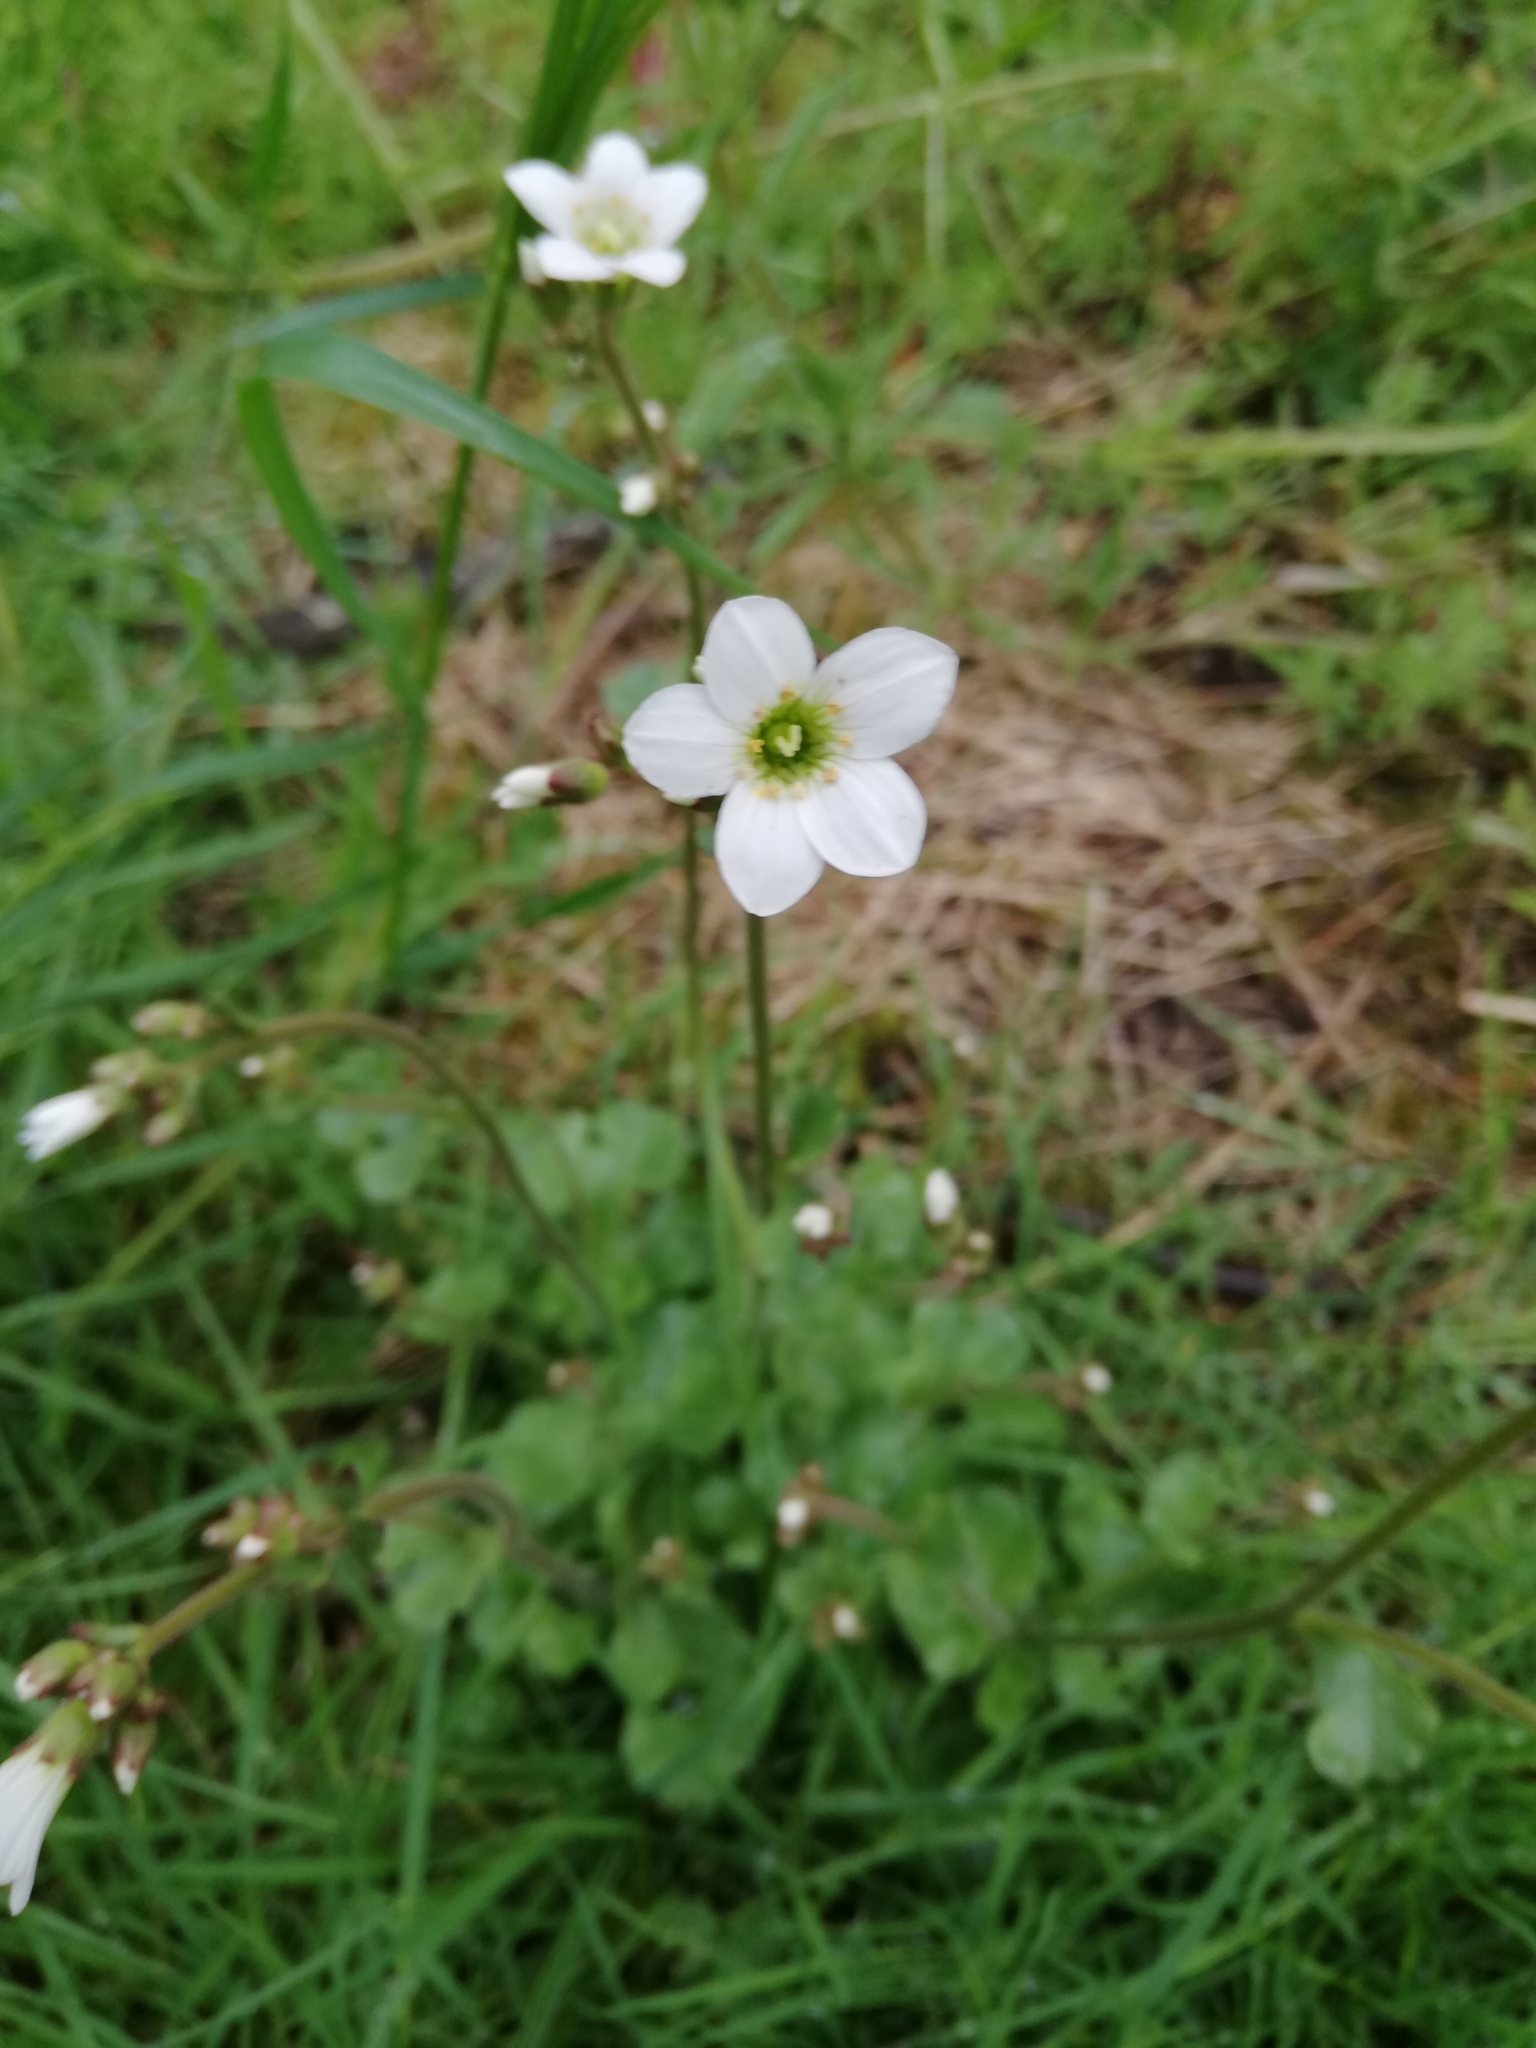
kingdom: Plantae
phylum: Tracheophyta
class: Magnoliopsida
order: Saxifragales
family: Saxifragaceae
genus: Saxifraga
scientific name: Saxifraga granulata
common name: Meadow saxifrage
